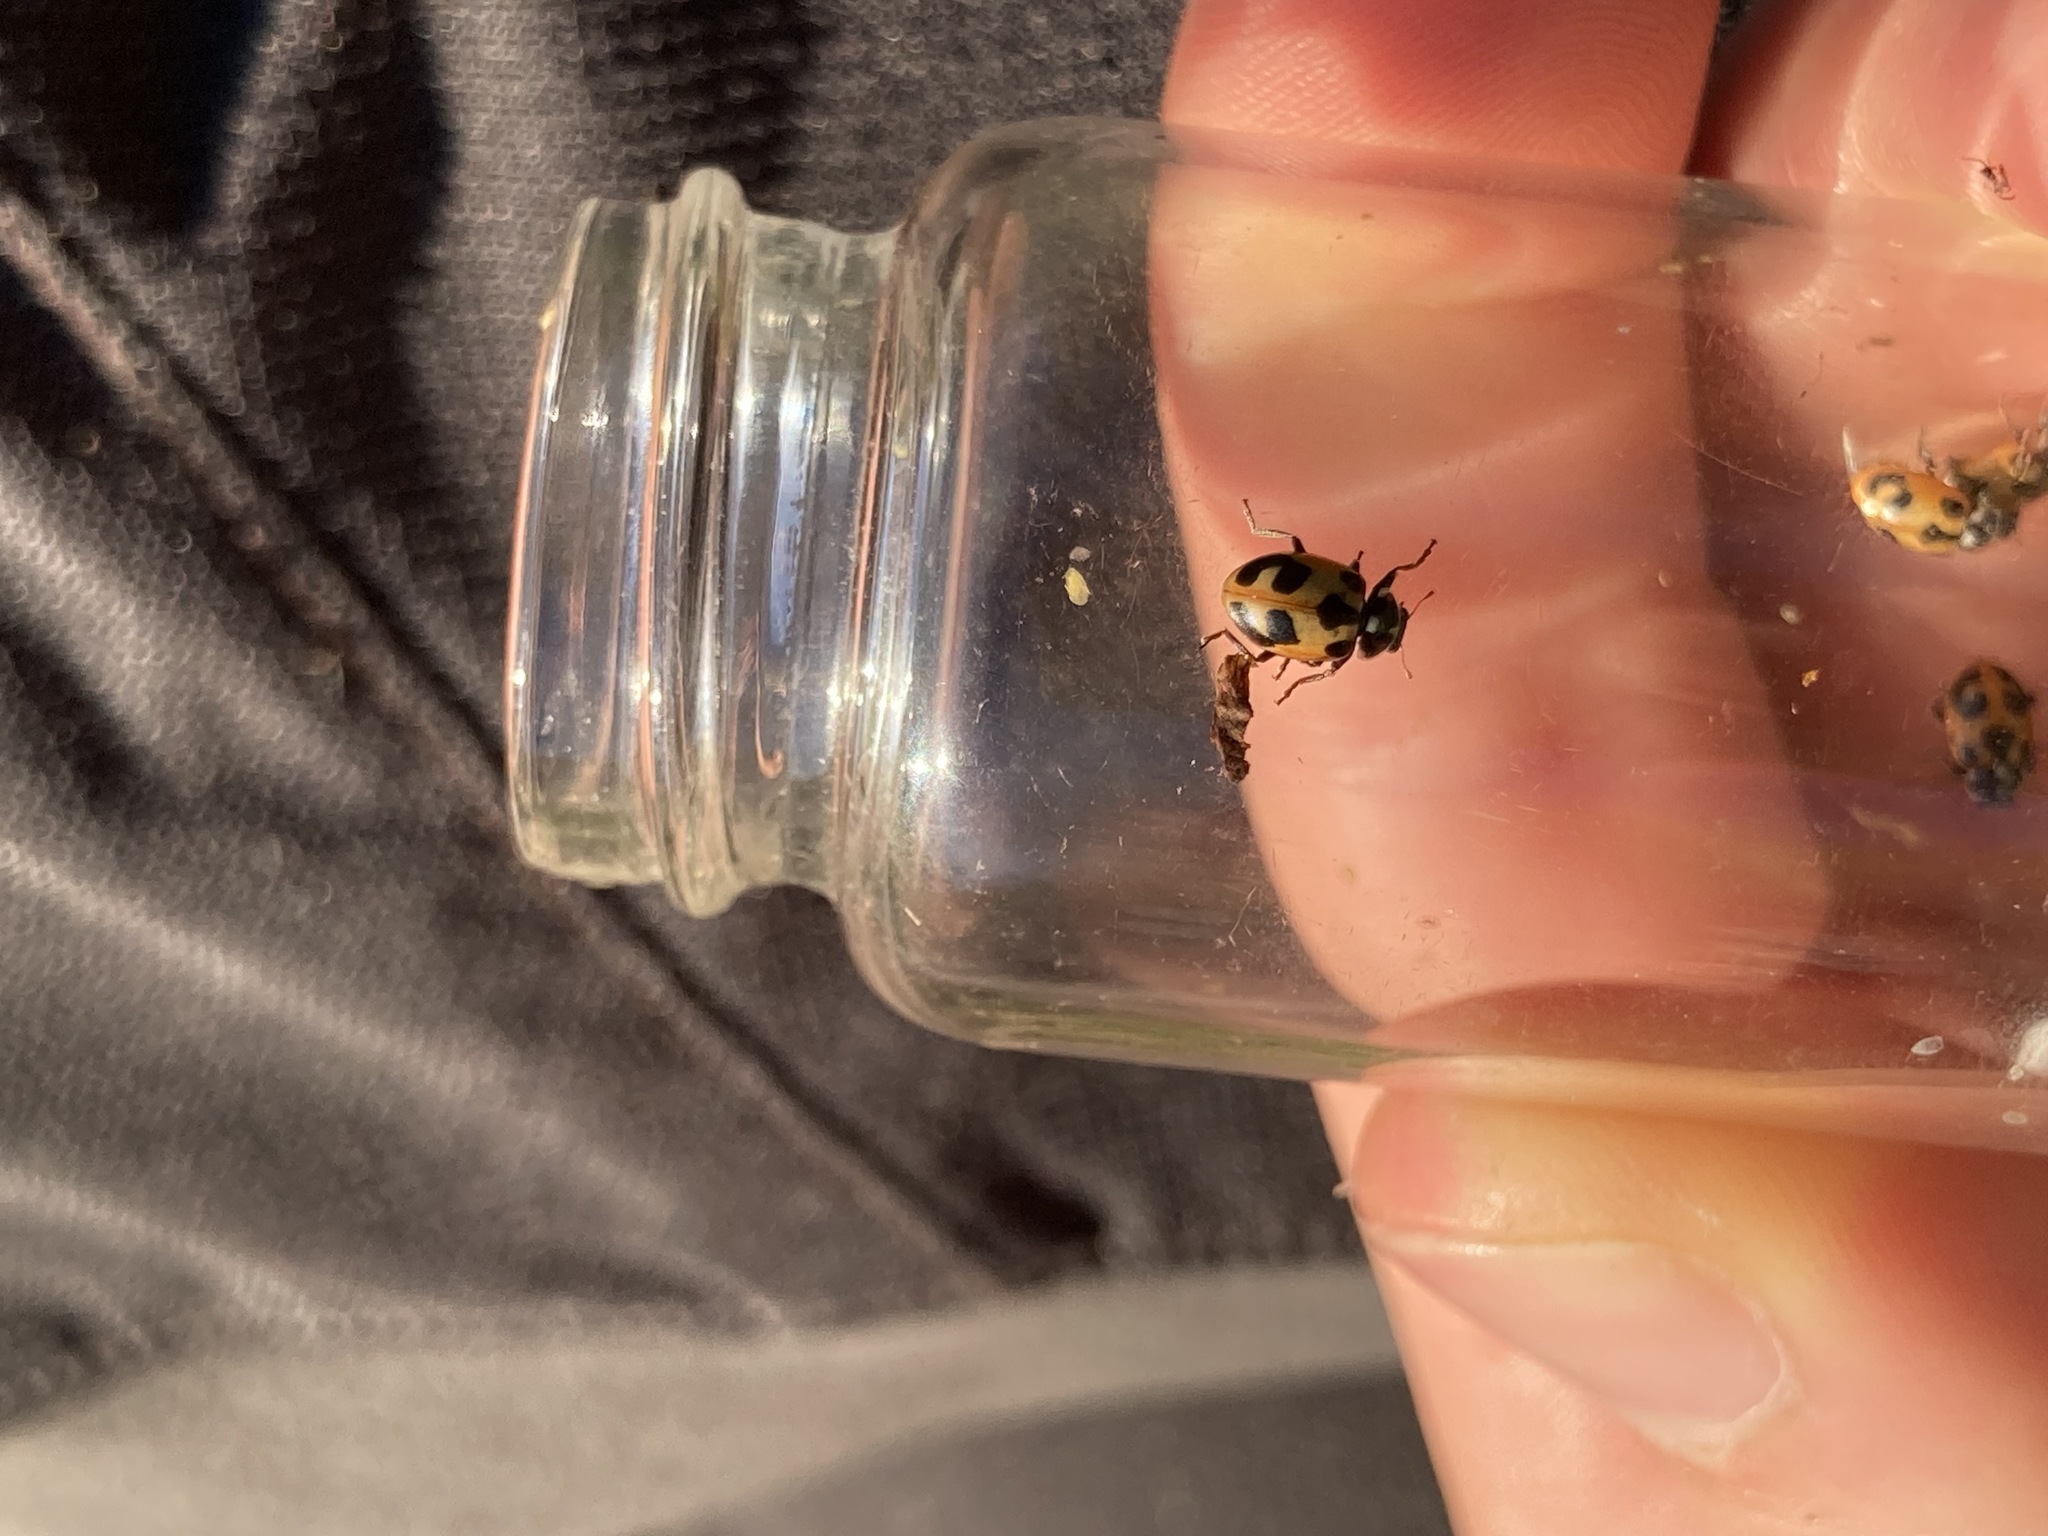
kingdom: Animalia
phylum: Arthropoda
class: Insecta
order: Coleoptera
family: Coccinellidae
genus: Hippodamia
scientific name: Hippodamia parenthesis
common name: Parenthesis lady beetle
